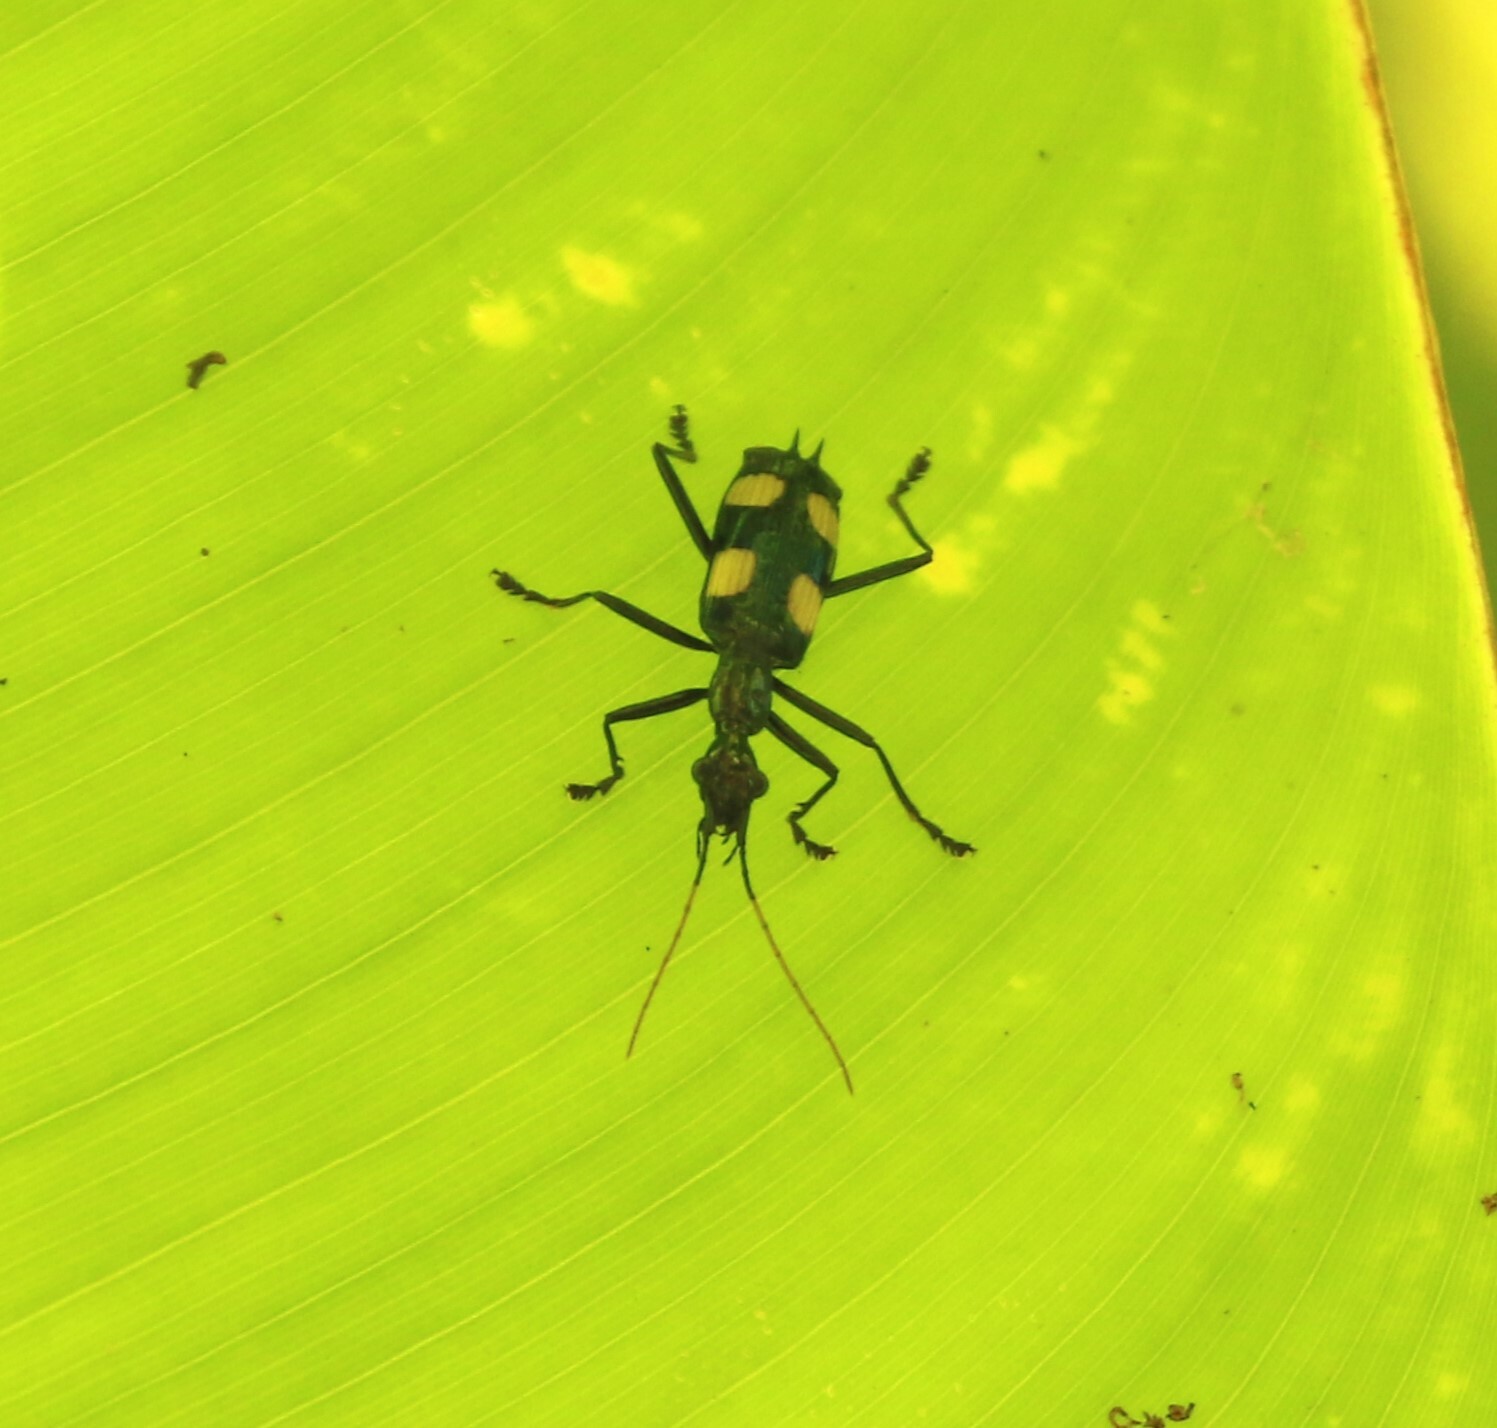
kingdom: Animalia
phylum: Arthropoda
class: Insecta
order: Coleoptera
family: Carabidae
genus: Calophaena
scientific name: Calophaena laevigata
